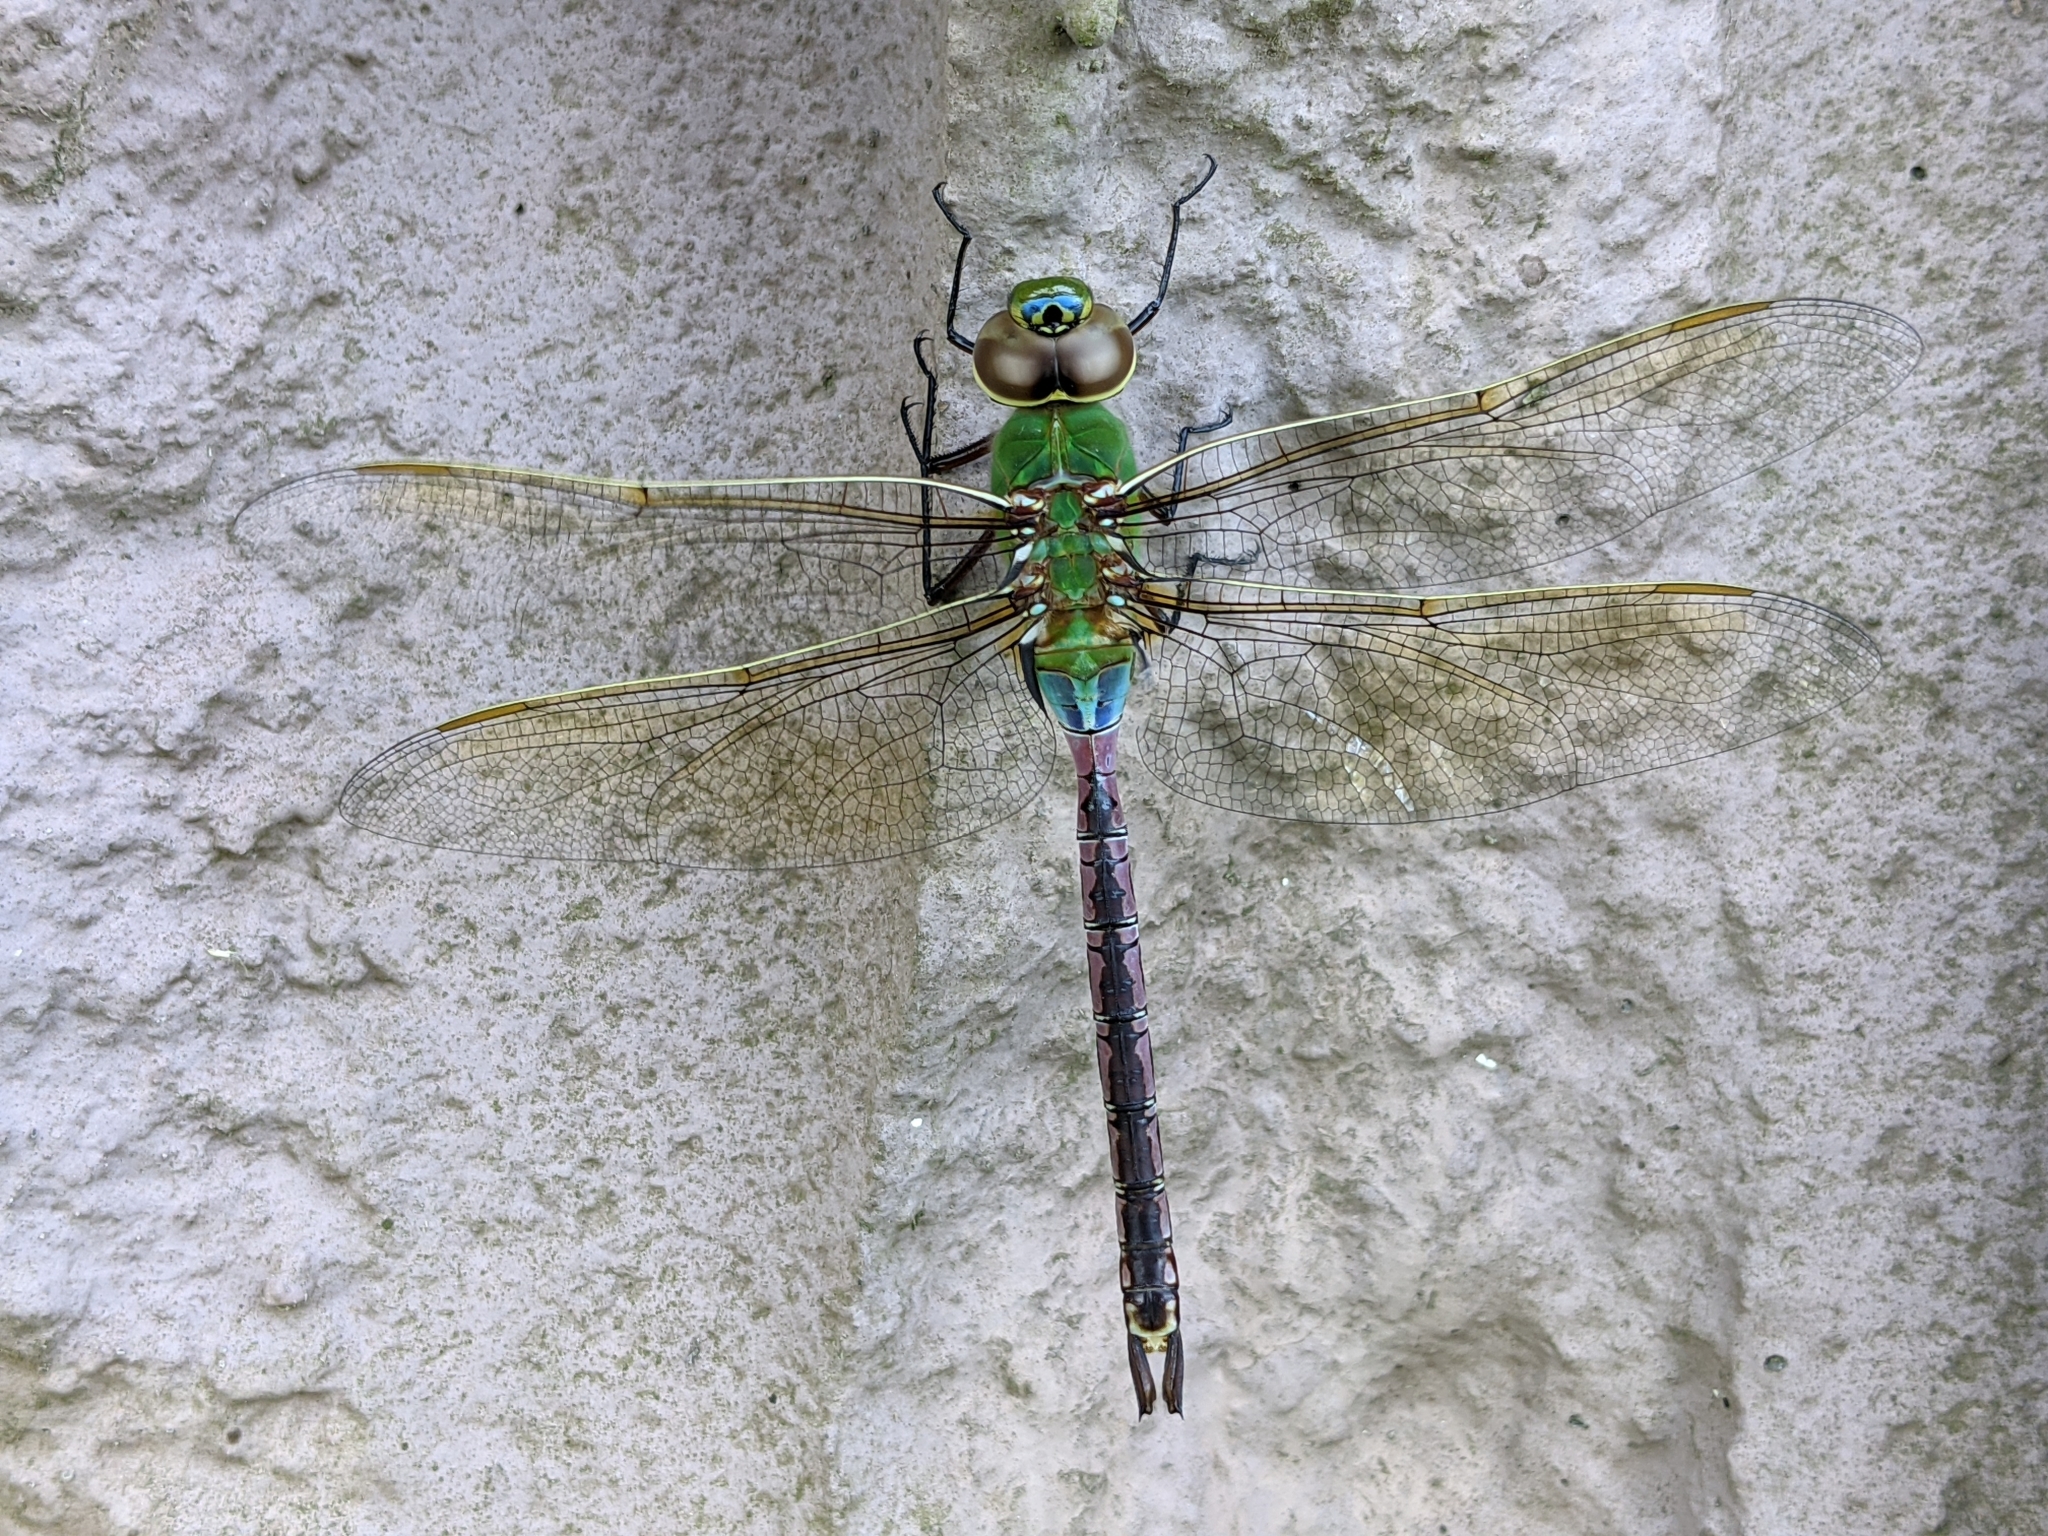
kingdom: Animalia
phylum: Arthropoda
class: Insecta
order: Odonata
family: Aeshnidae
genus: Anax
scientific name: Anax junius
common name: Common green darner
